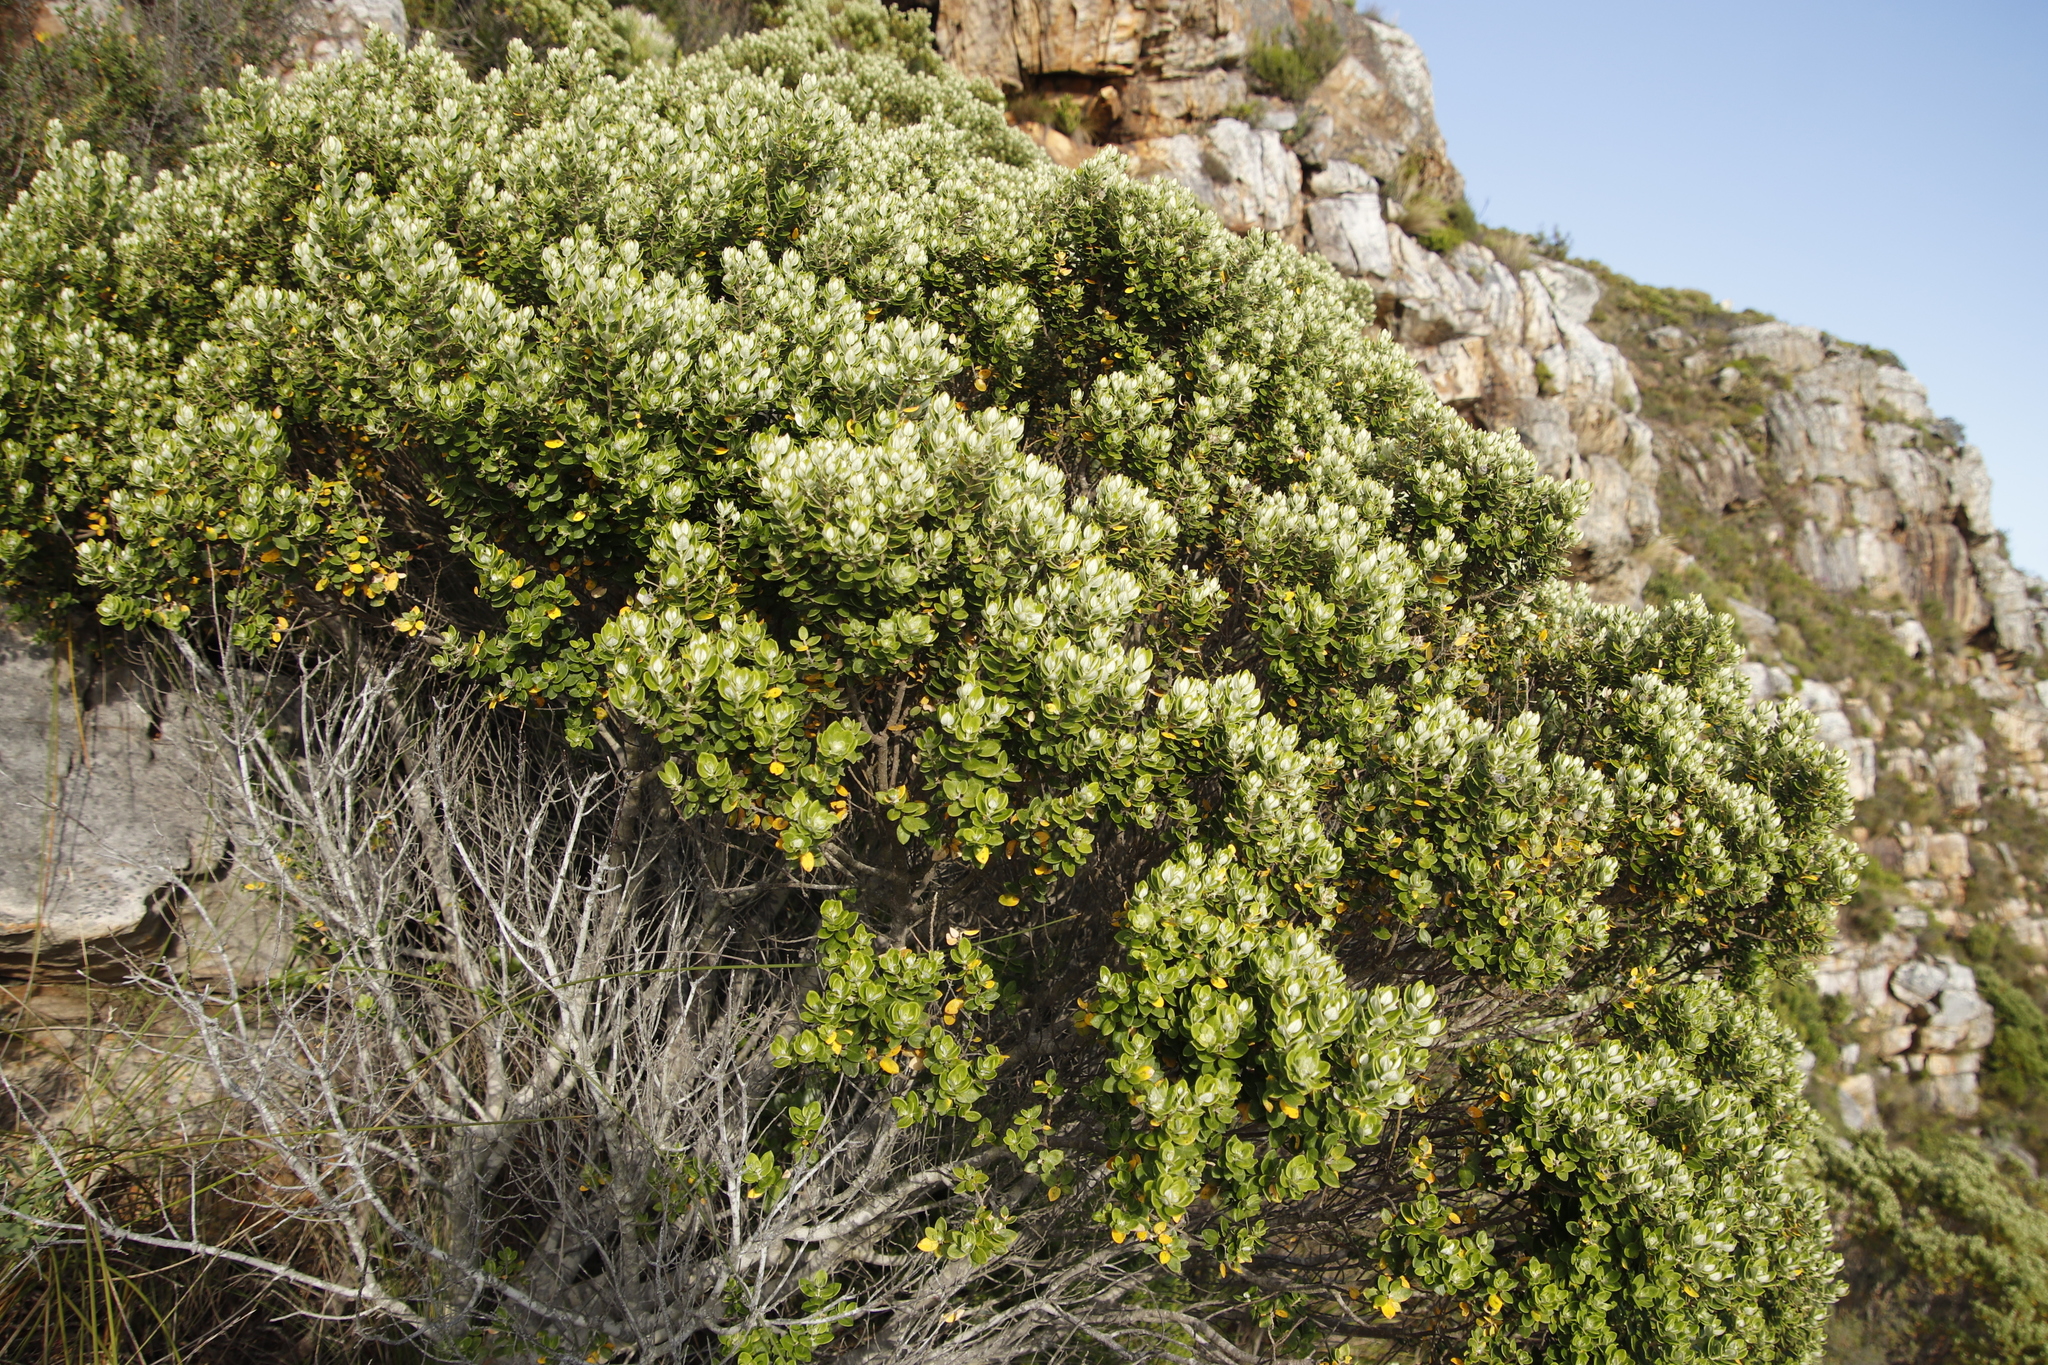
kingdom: Plantae
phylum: Tracheophyta
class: Magnoliopsida
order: Rosales
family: Rhamnaceae
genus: Phylica
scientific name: Phylica buxifolia
